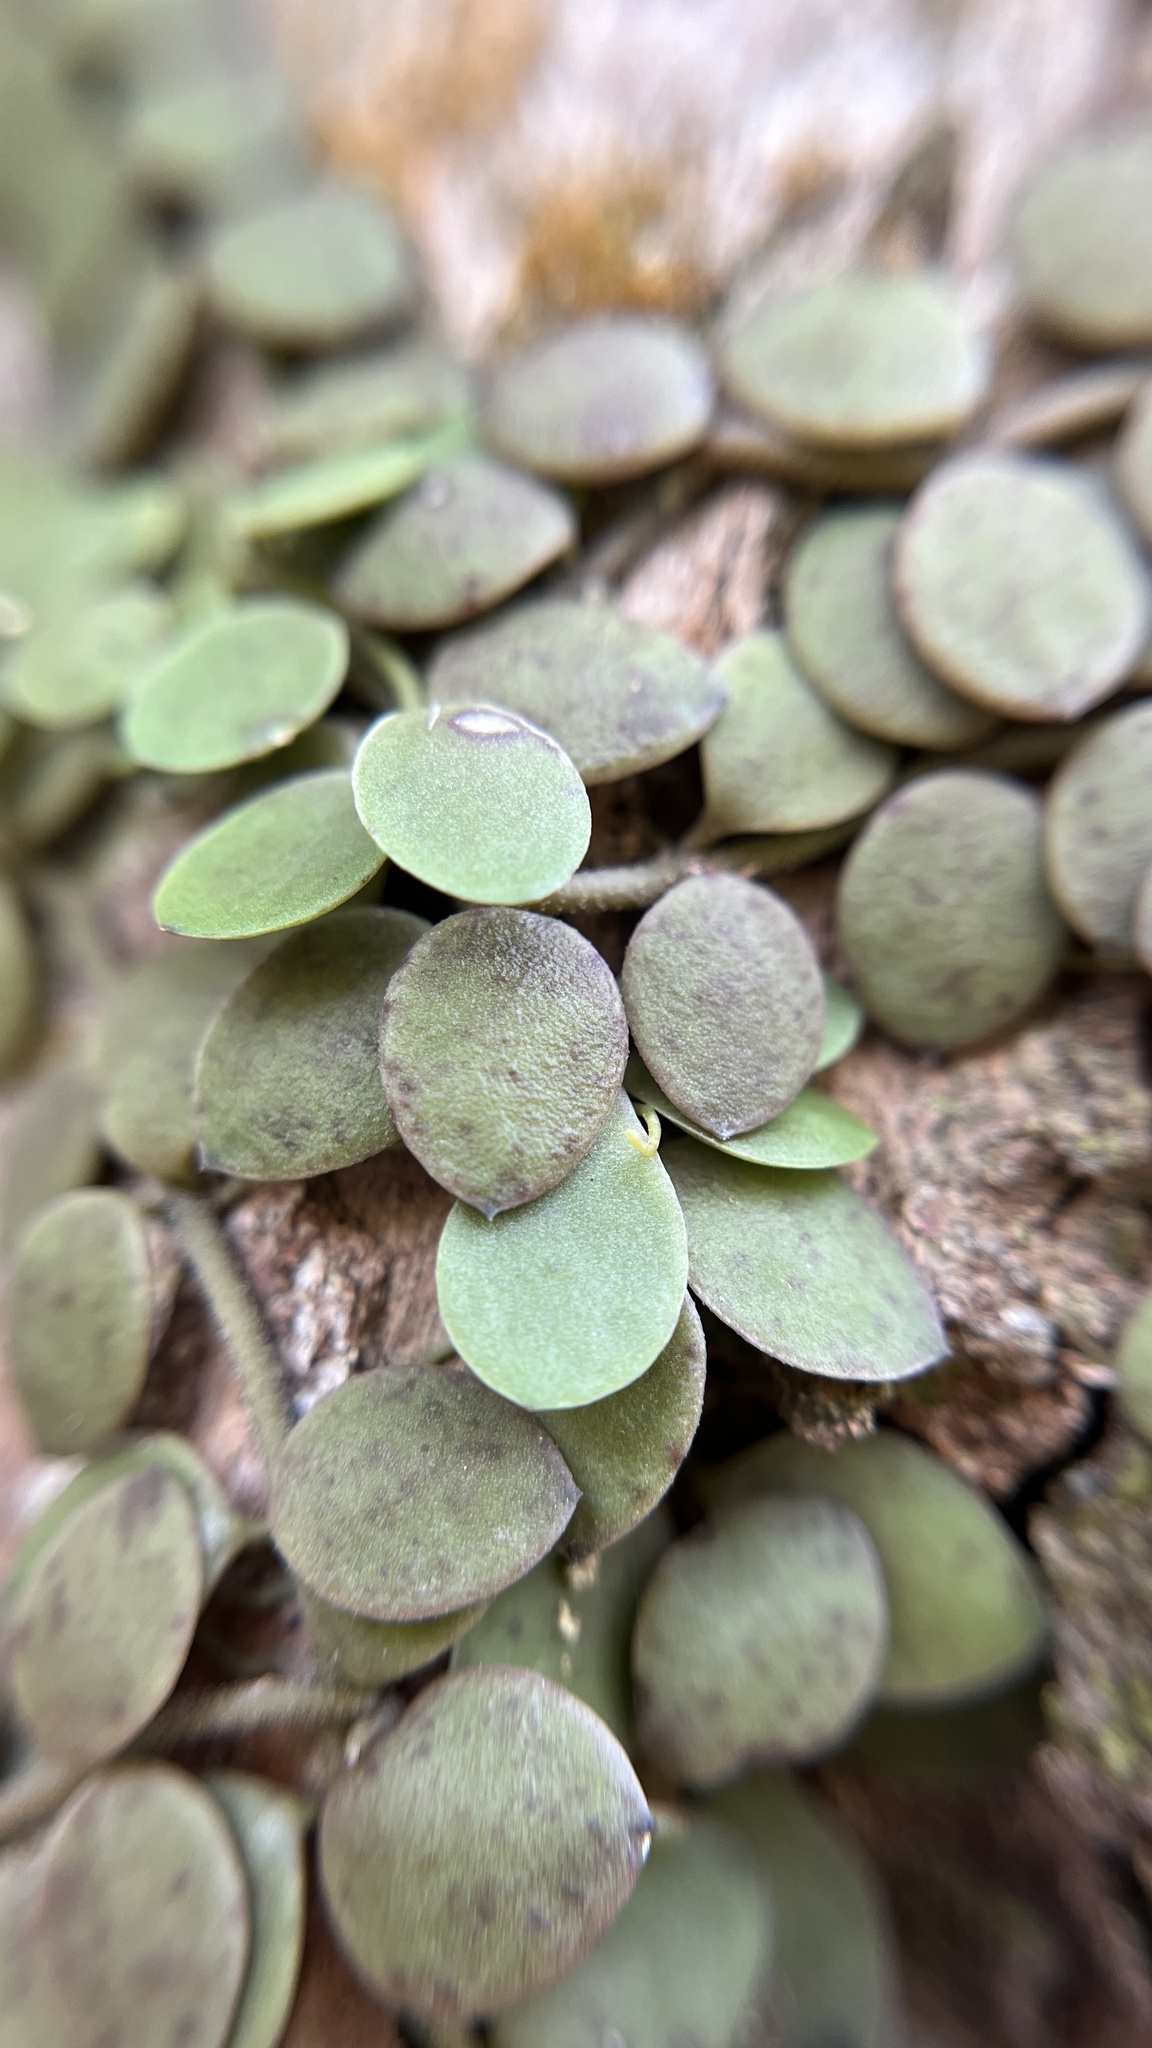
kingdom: Plantae
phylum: Tracheophyta
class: Magnoliopsida
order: Gentianales
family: Apocynaceae
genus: Dischidia
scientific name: Dischidia nummularia
